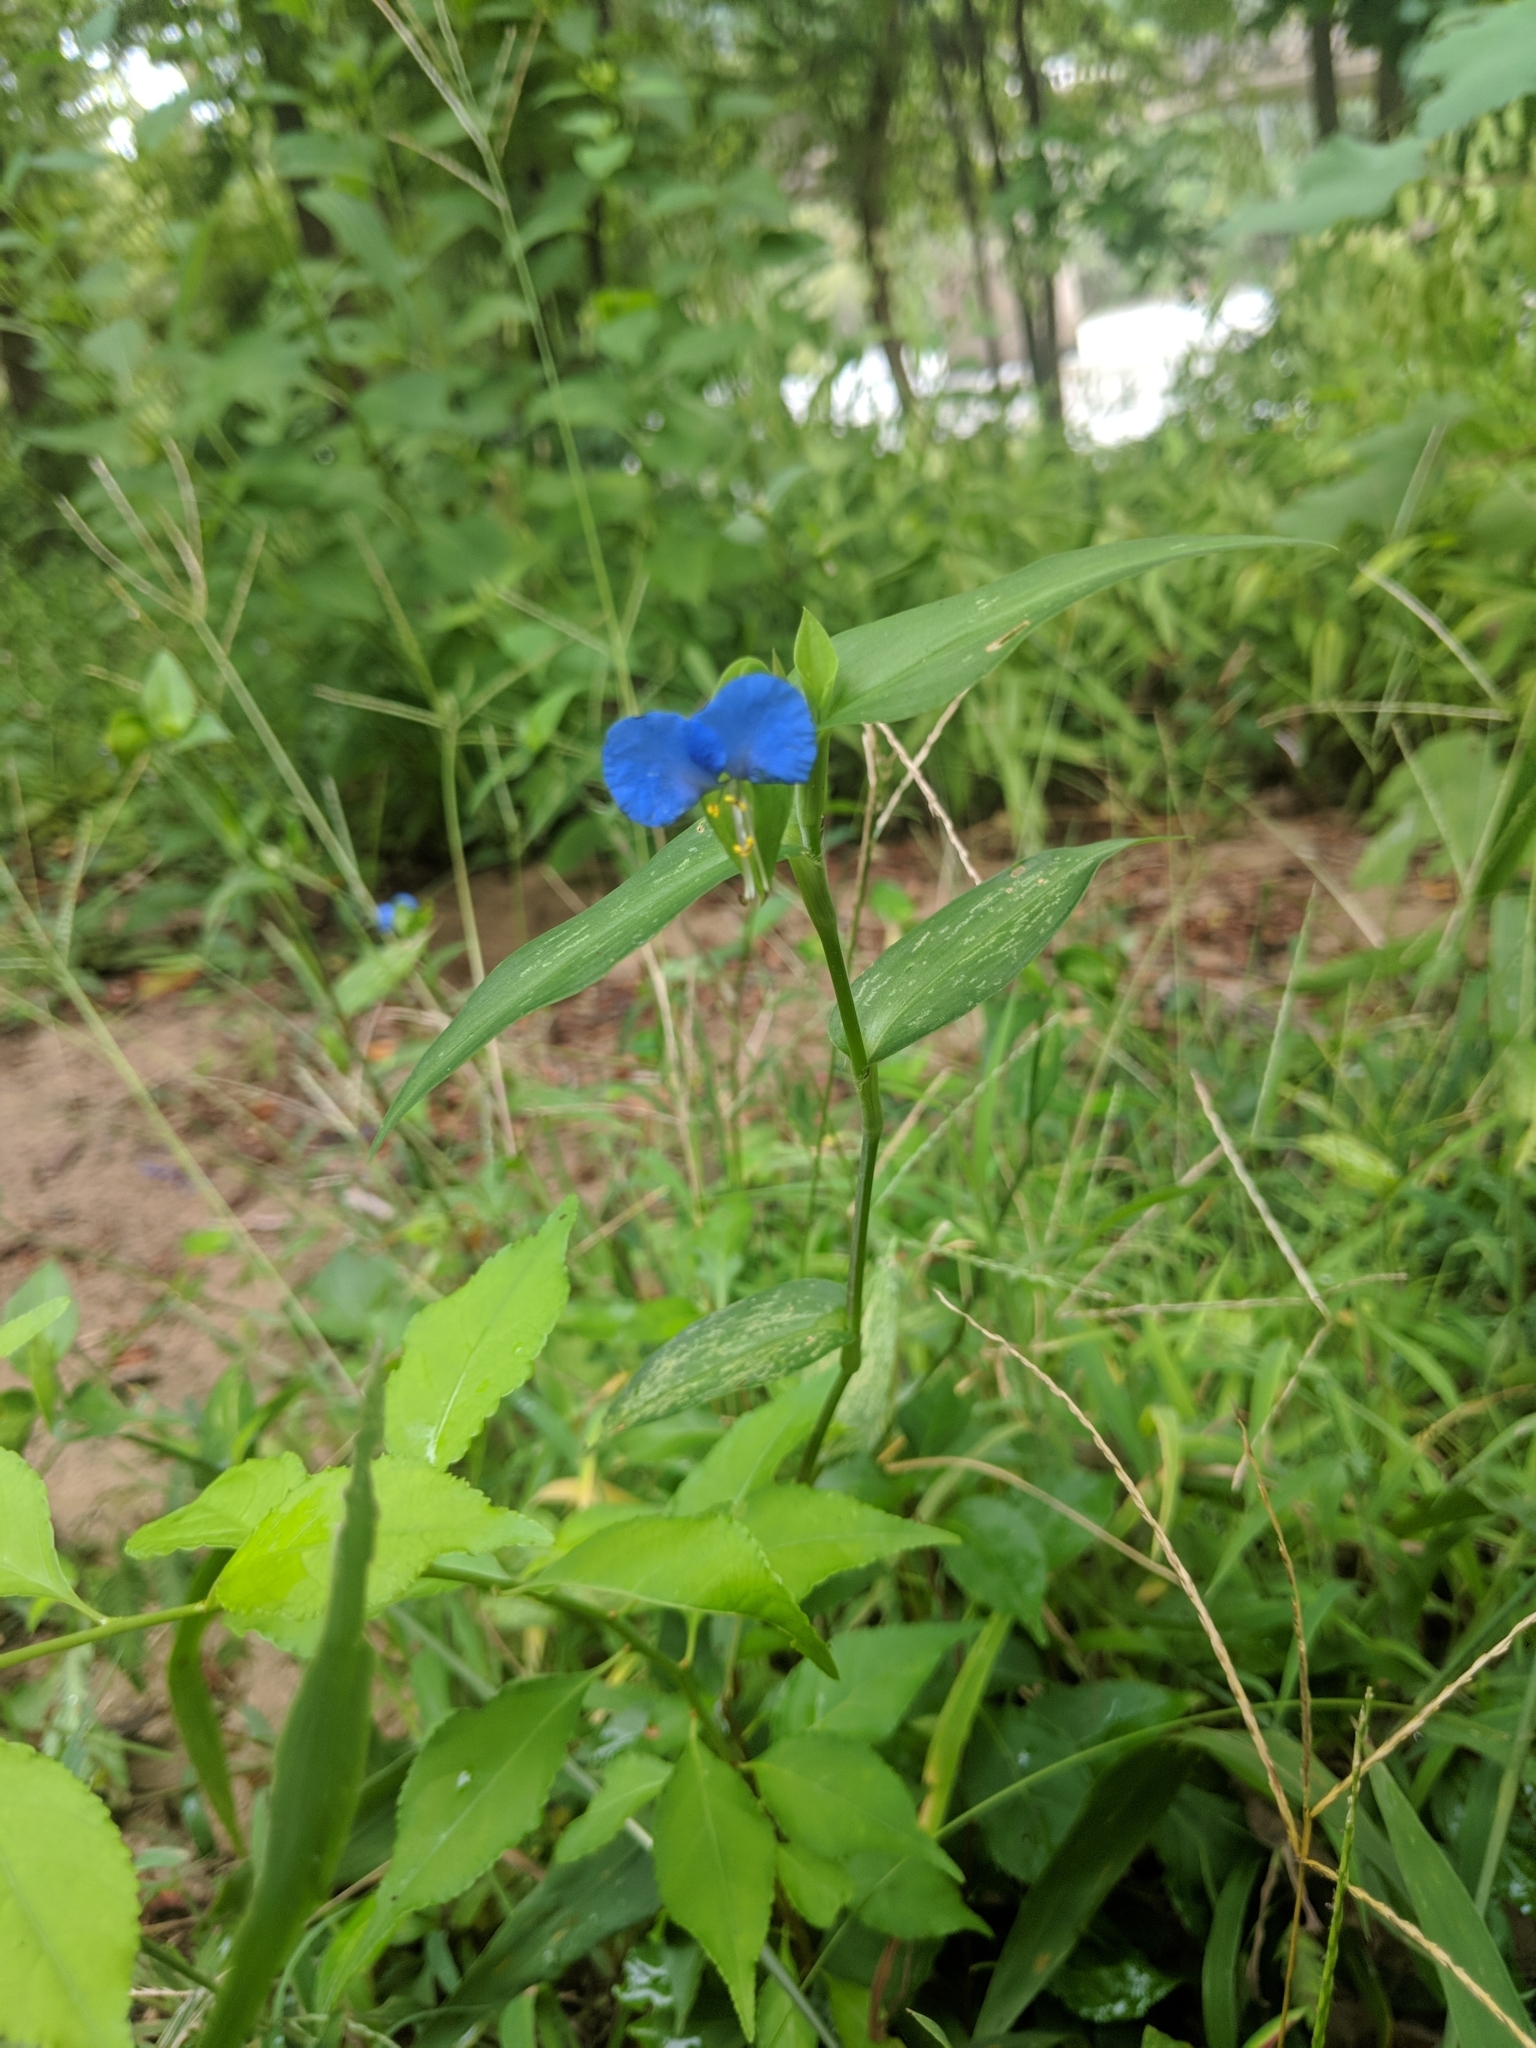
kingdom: Plantae
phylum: Tracheophyta
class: Liliopsida
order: Commelinales
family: Commelinaceae
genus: Commelina
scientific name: Commelina communis
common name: Asiatic dayflower
